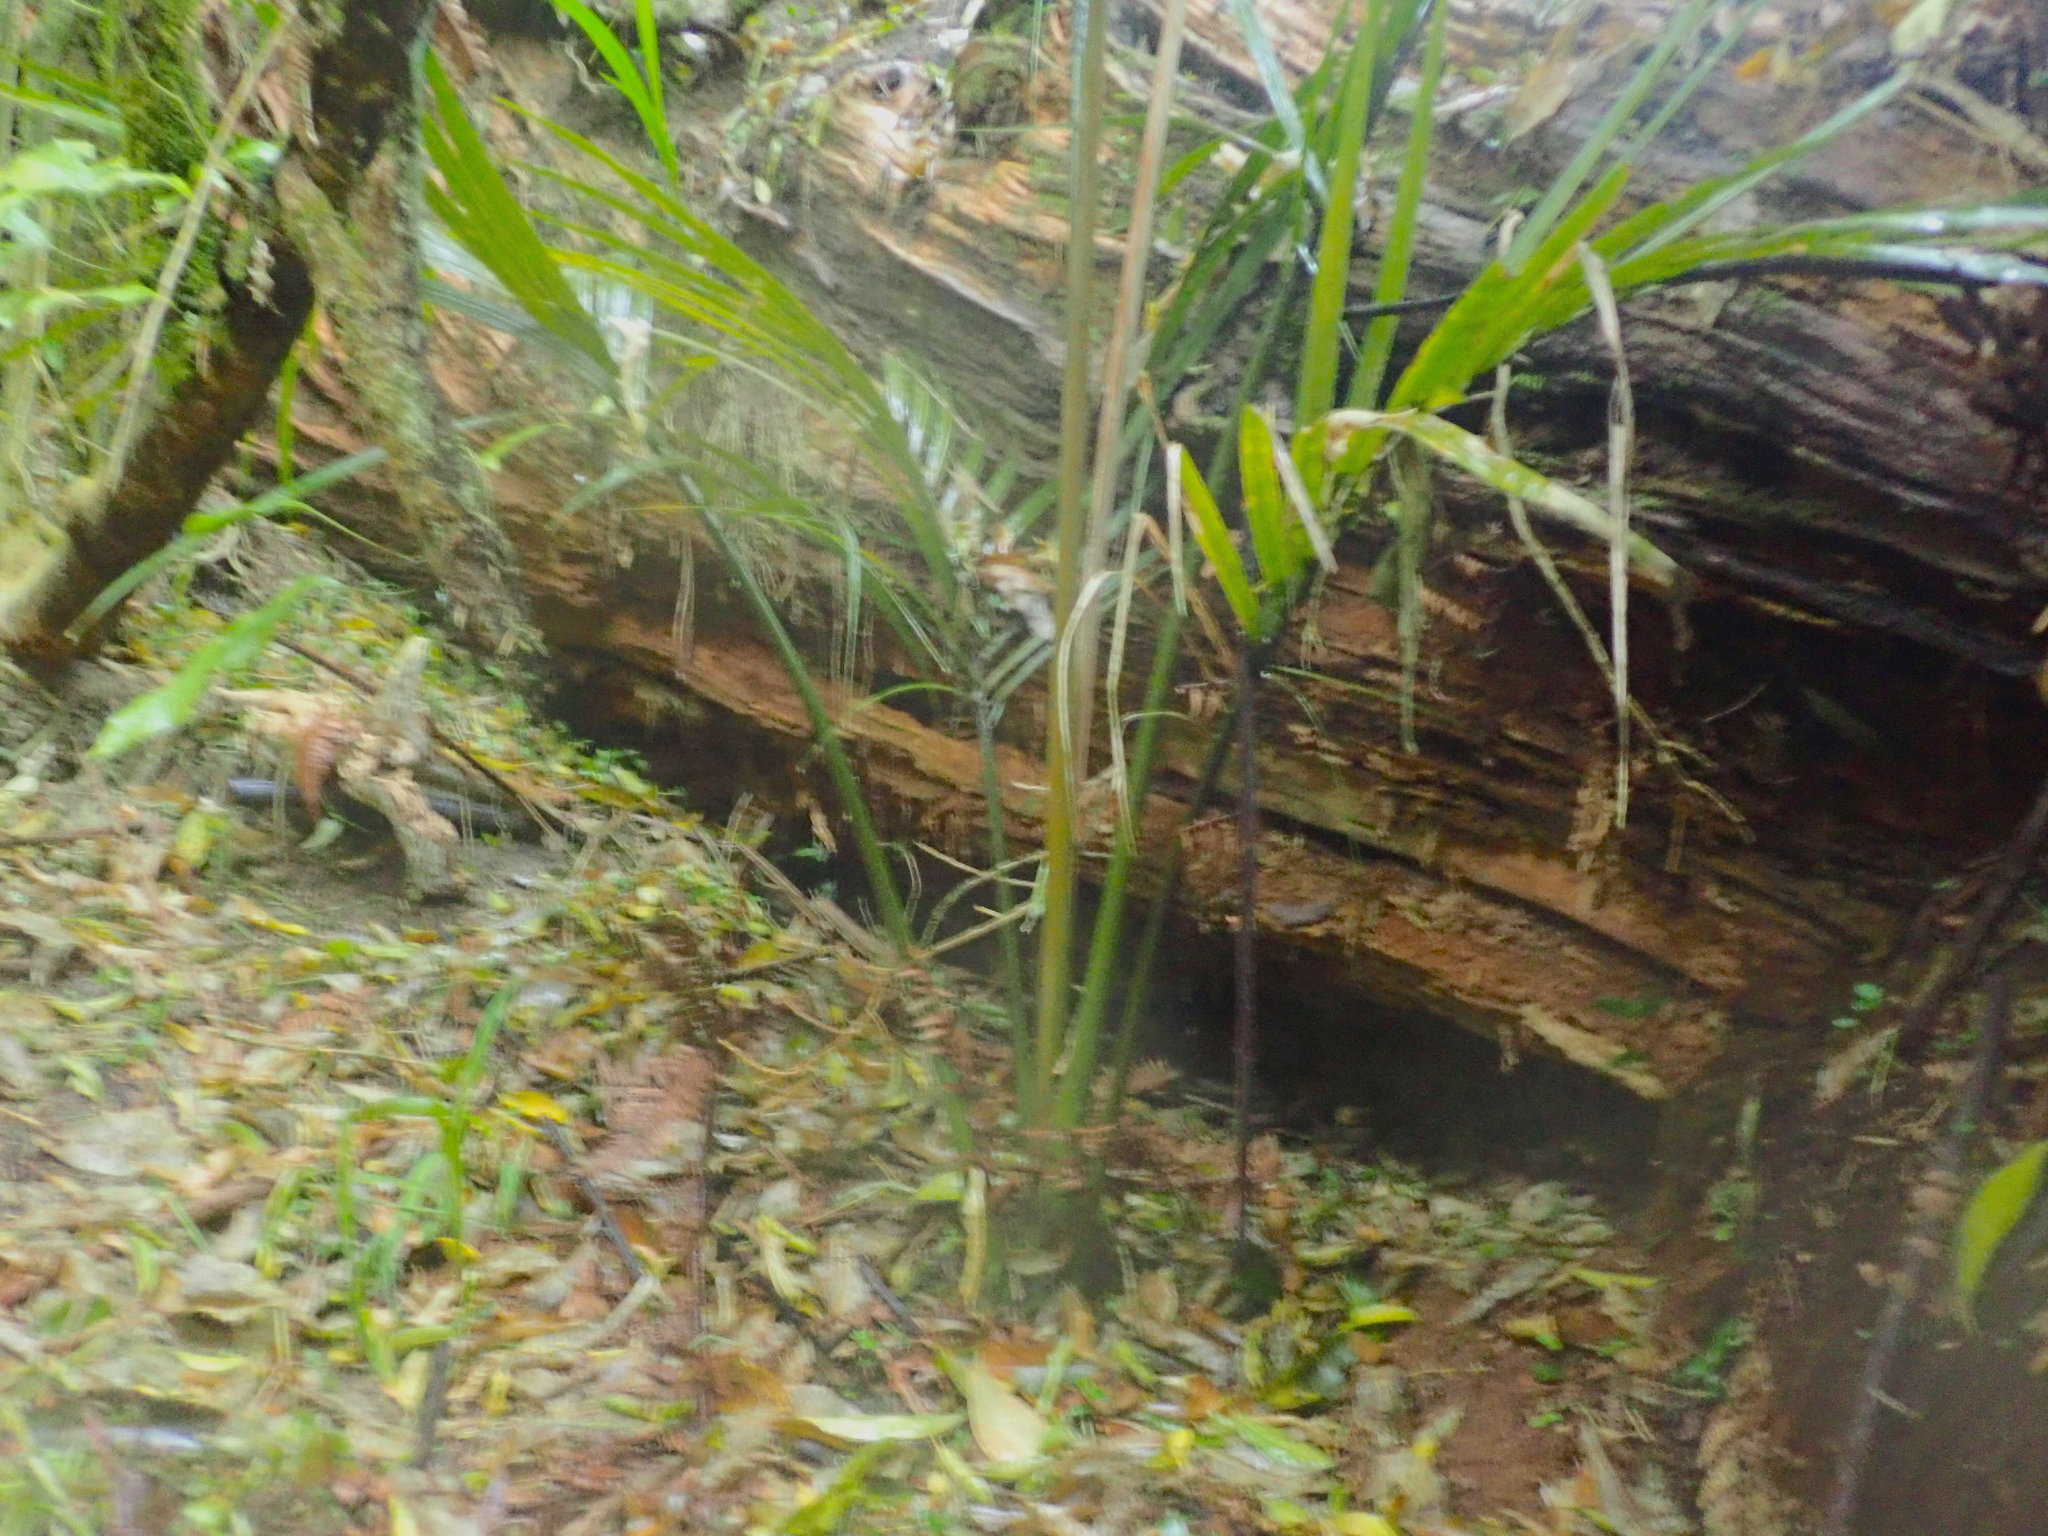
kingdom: Plantae
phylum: Tracheophyta
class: Liliopsida
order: Arecales
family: Arecaceae
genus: Rhopalostylis
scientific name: Rhopalostylis sapida
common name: Feather-duster palm
